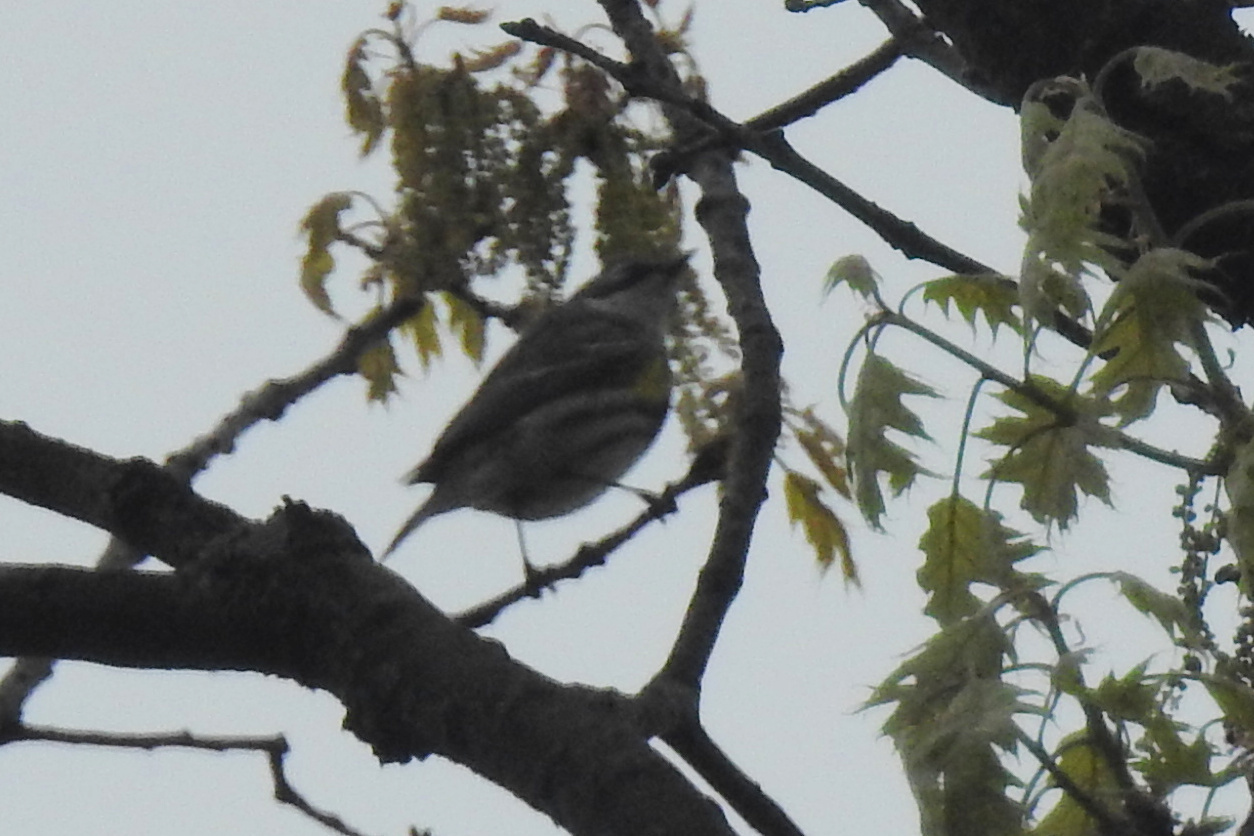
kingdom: Animalia
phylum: Chordata
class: Aves
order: Passeriformes
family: Parulidae
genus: Setophaga
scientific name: Setophaga coronata
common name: Myrtle warbler
